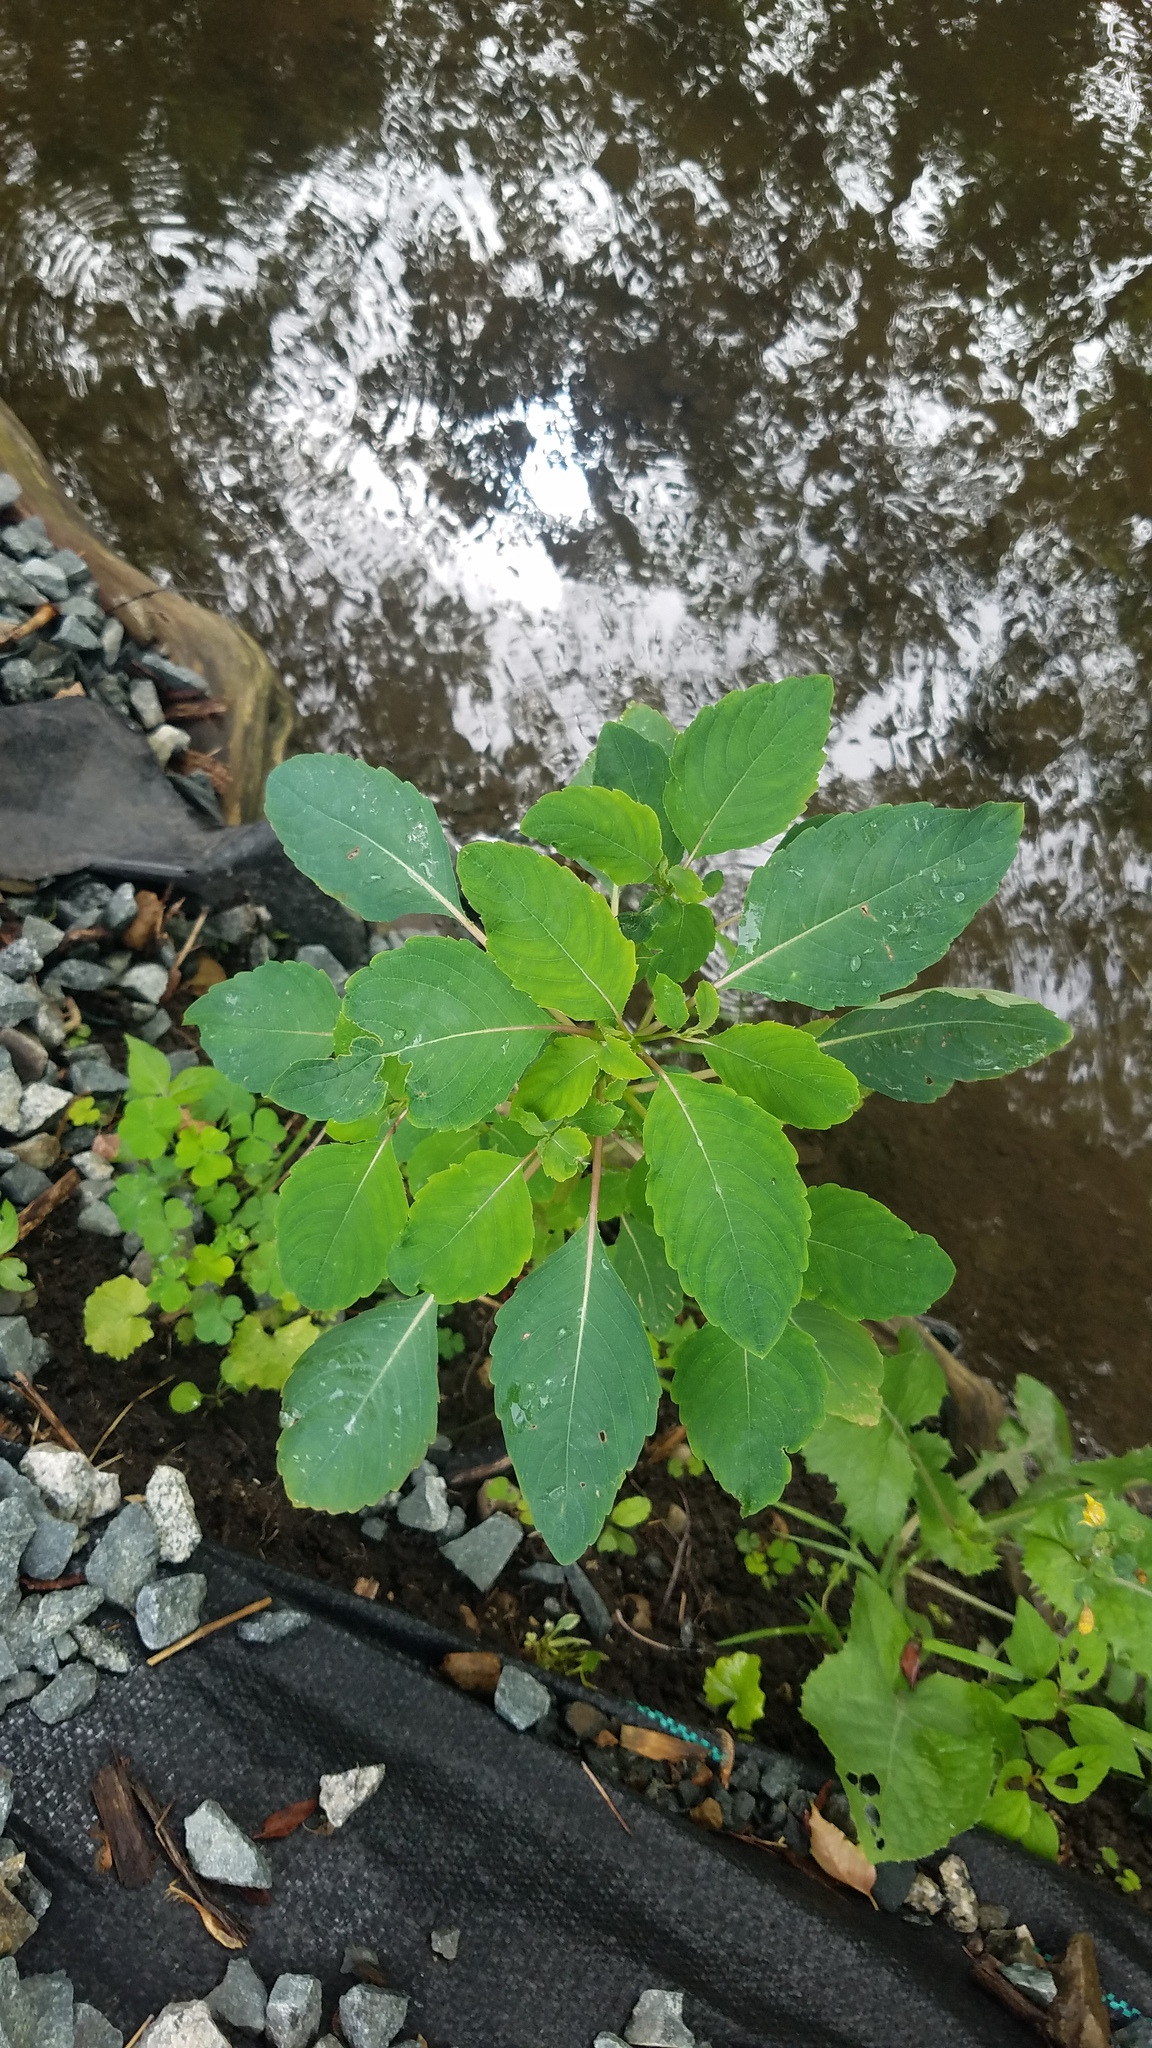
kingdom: Plantae
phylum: Tracheophyta
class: Magnoliopsida
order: Ericales
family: Balsaminaceae
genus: Impatiens
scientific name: Impatiens capensis
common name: Orange balsam
